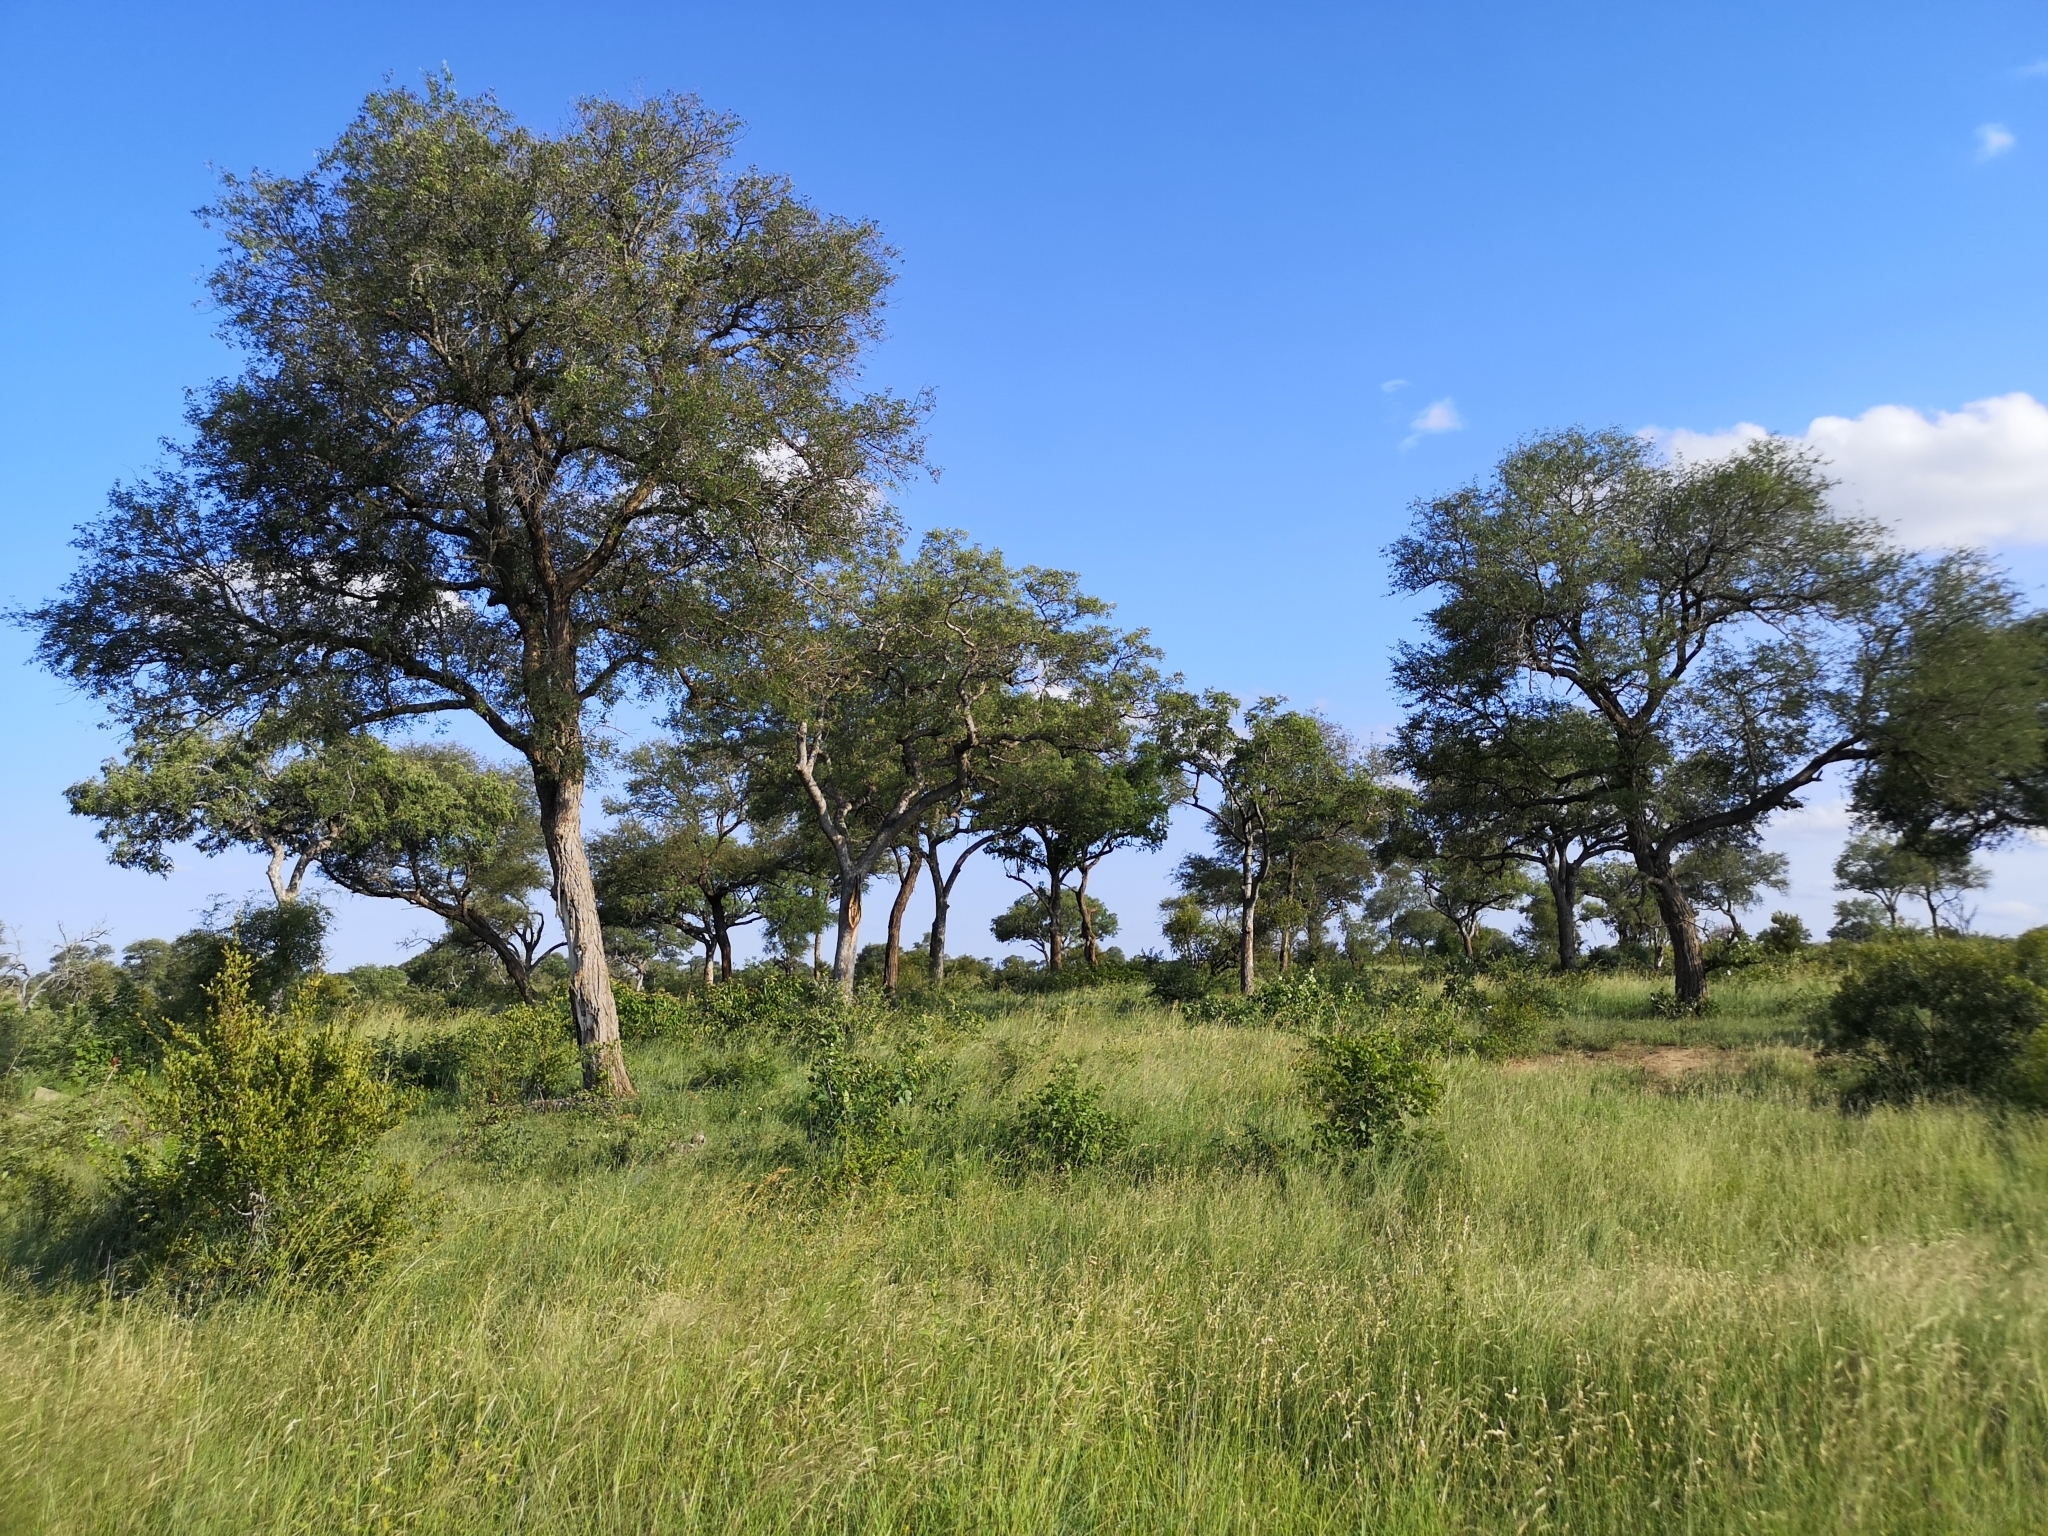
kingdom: Plantae
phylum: Tracheophyta
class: Magnoliopsida
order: Fabales
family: Fabaceae
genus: Senegalia
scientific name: Senegalia nigrescens
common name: Knobthorn
